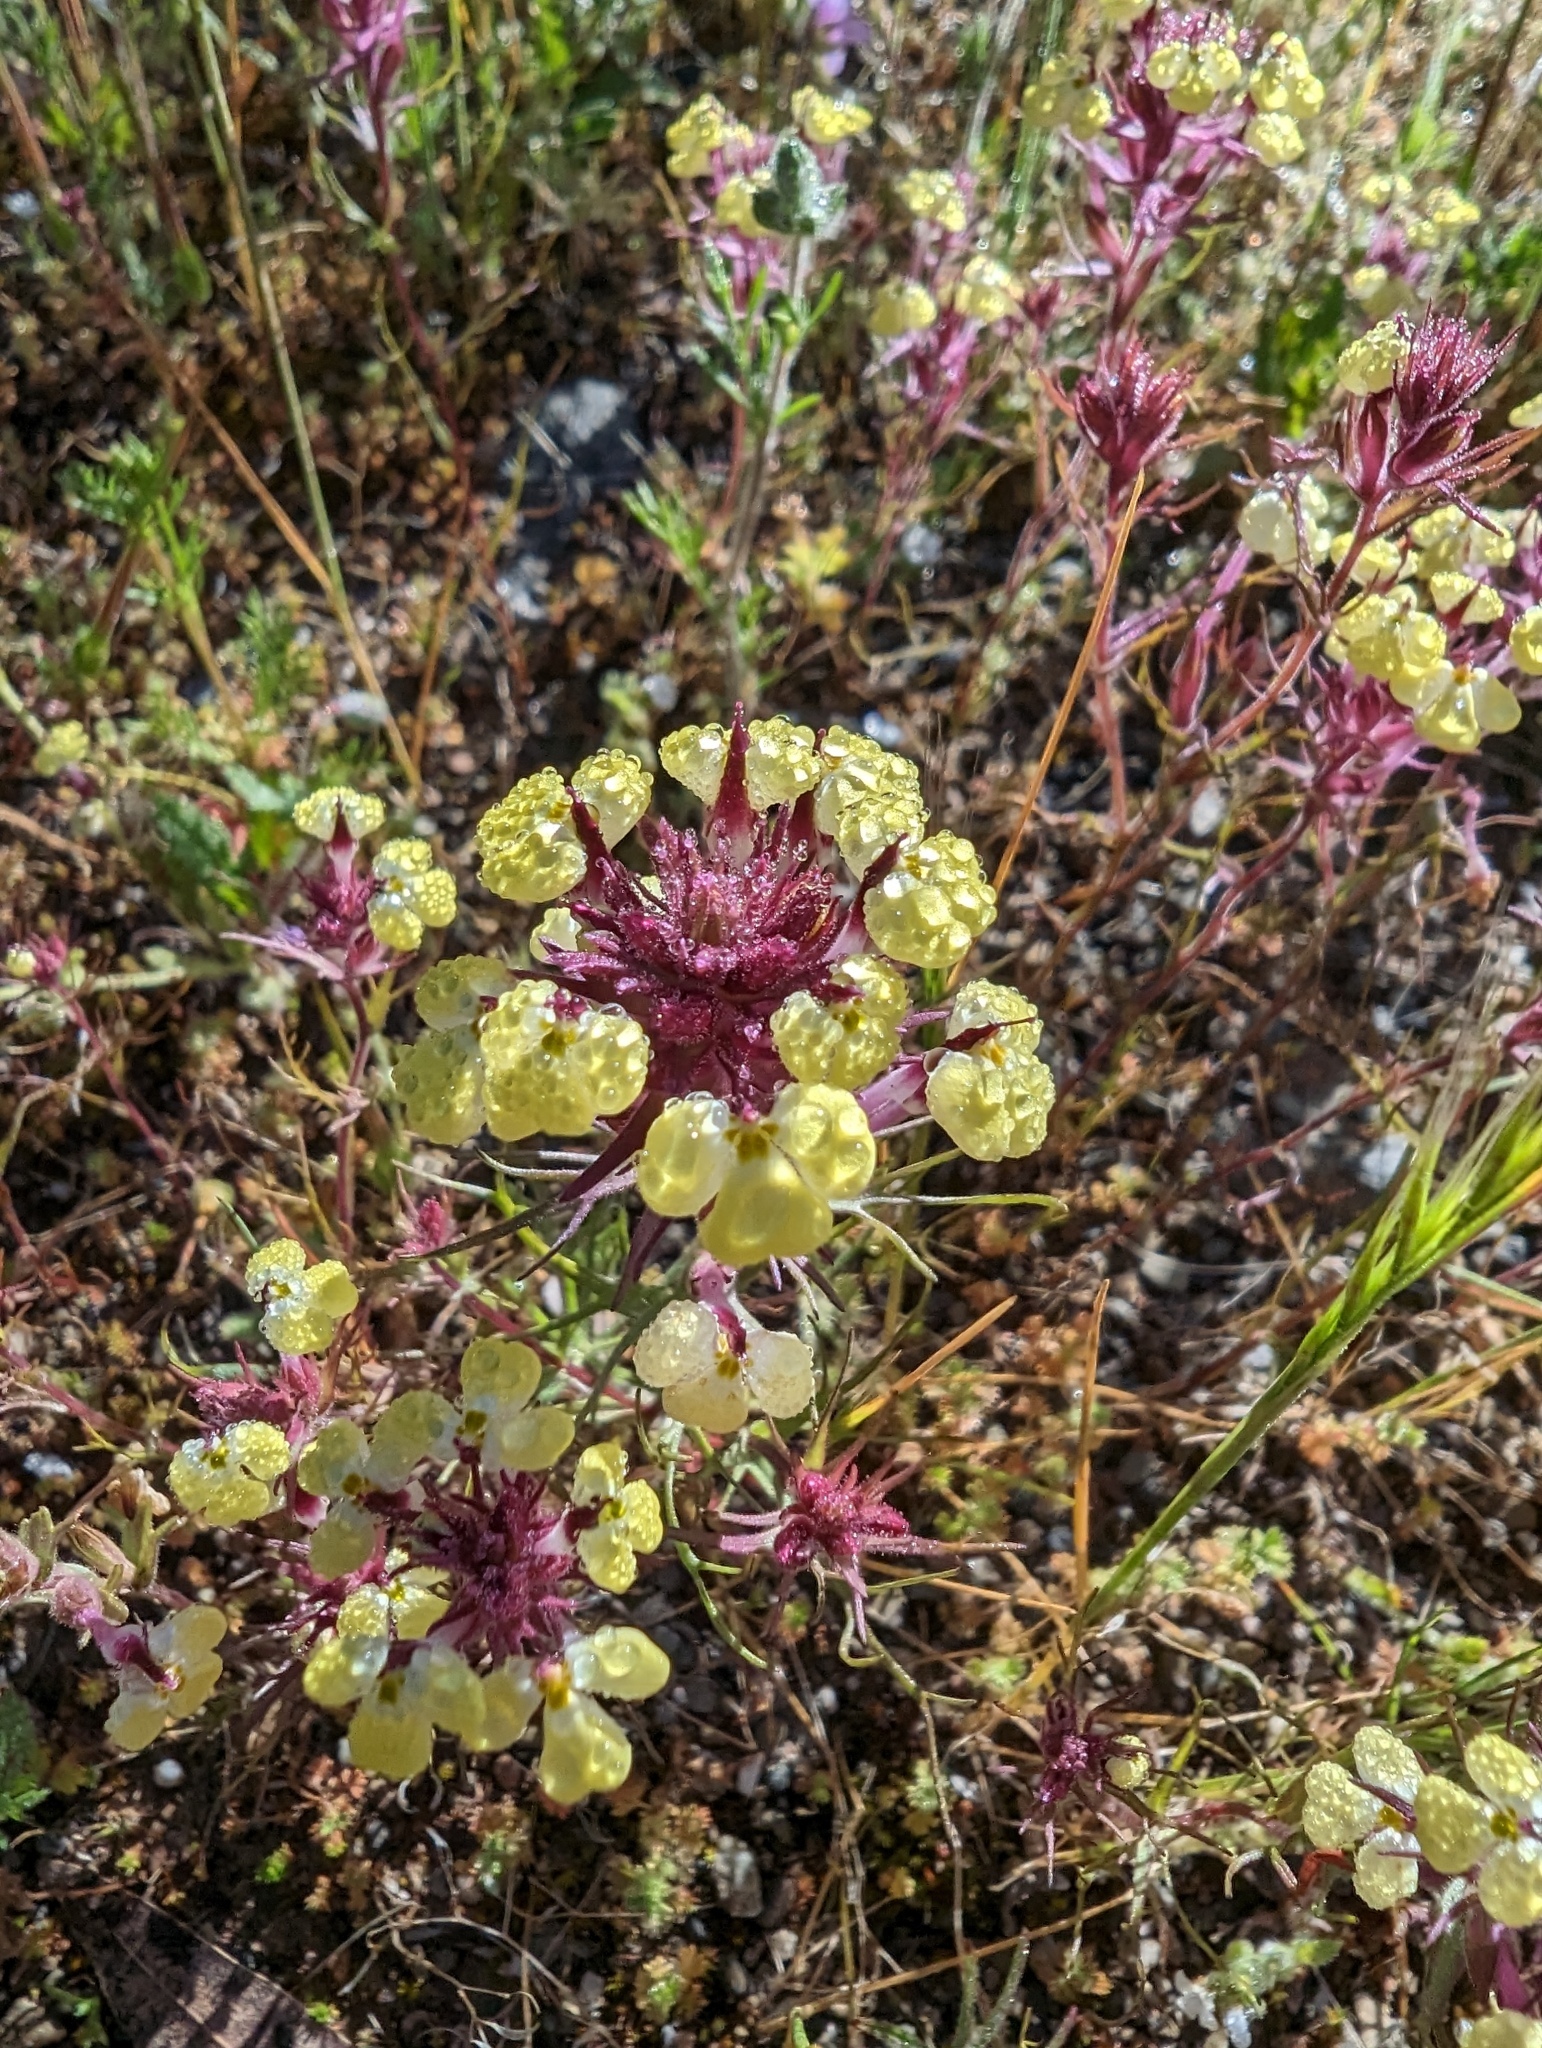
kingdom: Plantae
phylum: Tracheophyta
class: Magnoliopsida
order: Lamiales
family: Orobanchaceae
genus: Triphysaria
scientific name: Triphysaria eriantha
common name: Johnny-tuck
